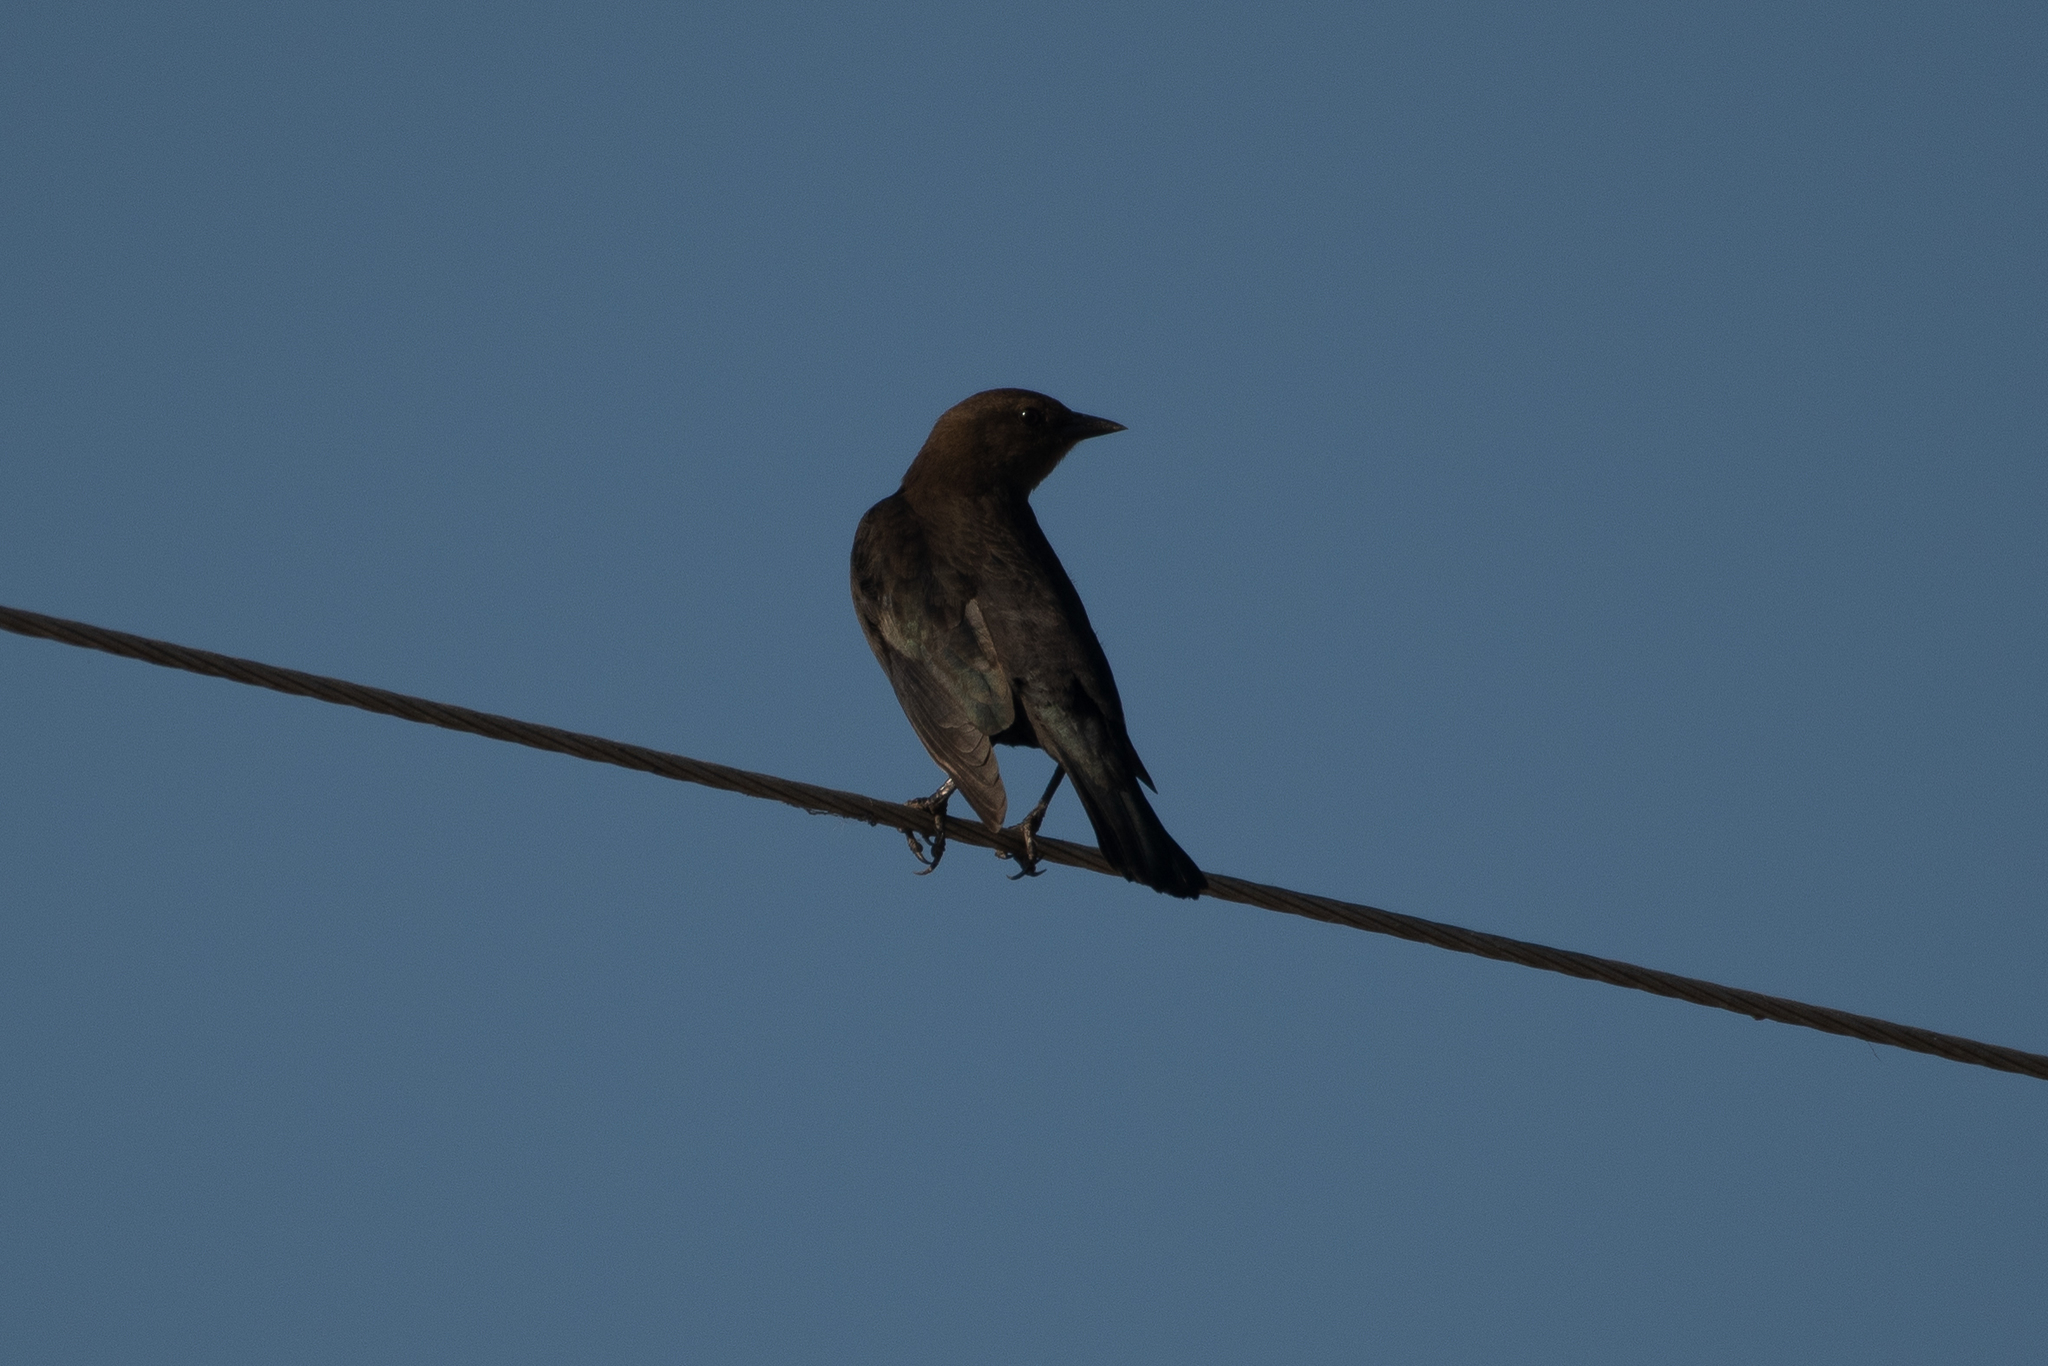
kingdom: Animalia
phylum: Chordata
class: Aves
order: Passeriformes
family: Icteridae
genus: Euphagus
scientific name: Euphagus cyanocephalus
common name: Brewer's blackbird
